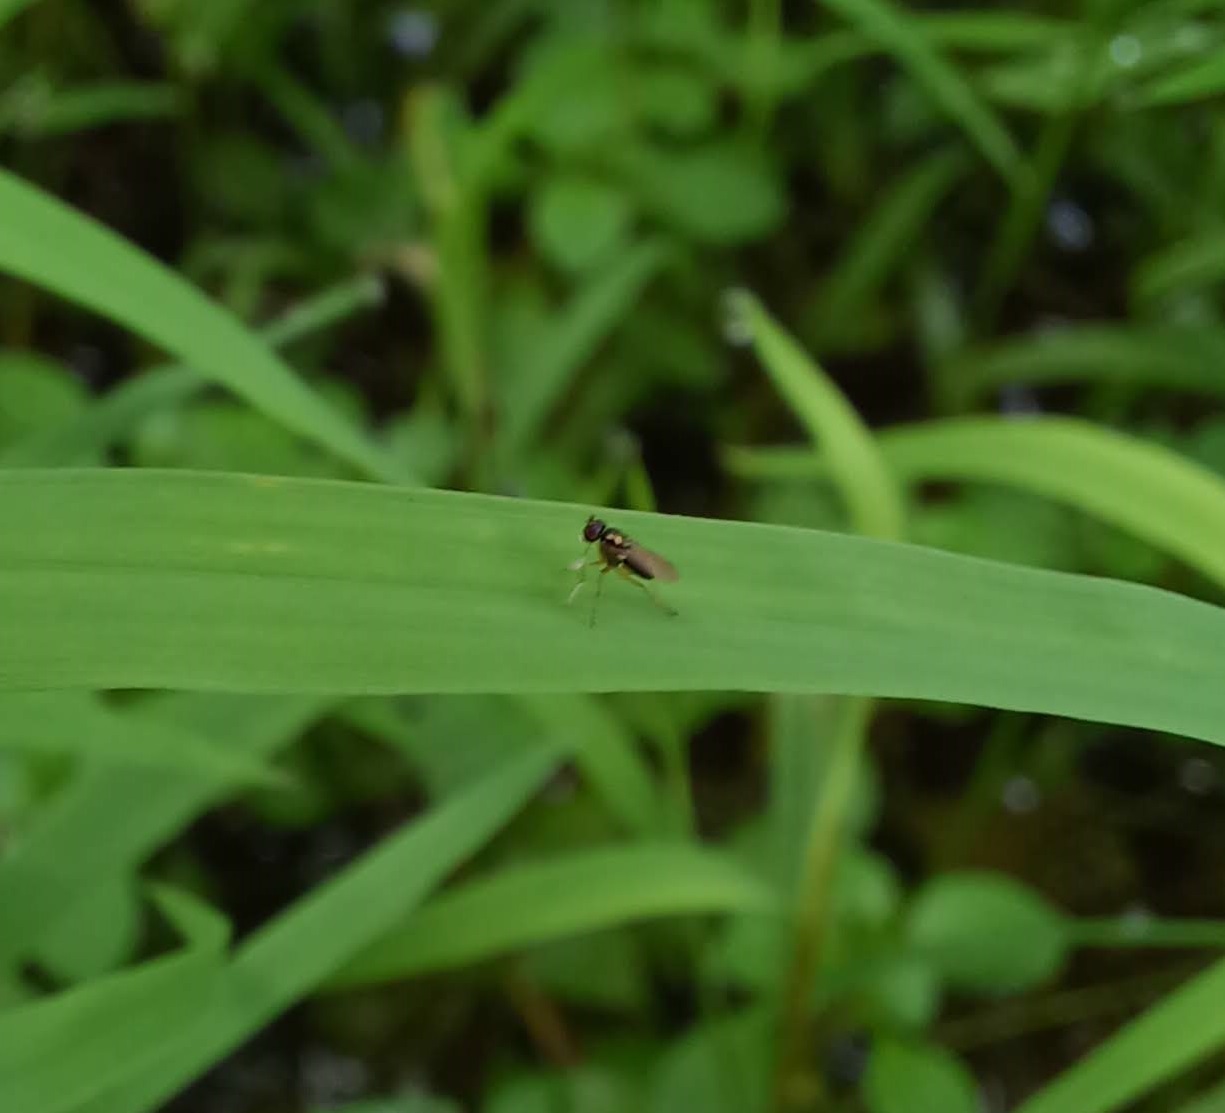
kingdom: Animalia
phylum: Arthropoda
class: Insecta
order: Diptera
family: Dolichopodidae
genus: Chrysotus
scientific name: Chrysotus tarsalis
